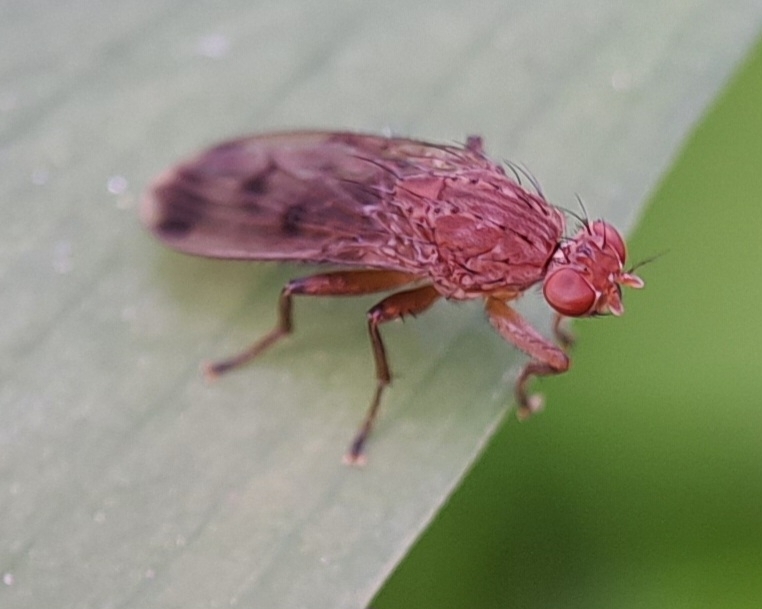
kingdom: Animalia
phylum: Arthropoda
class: Insecta
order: Diptera
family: Heleomyzidae
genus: Suillia
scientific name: Suillia variegata
